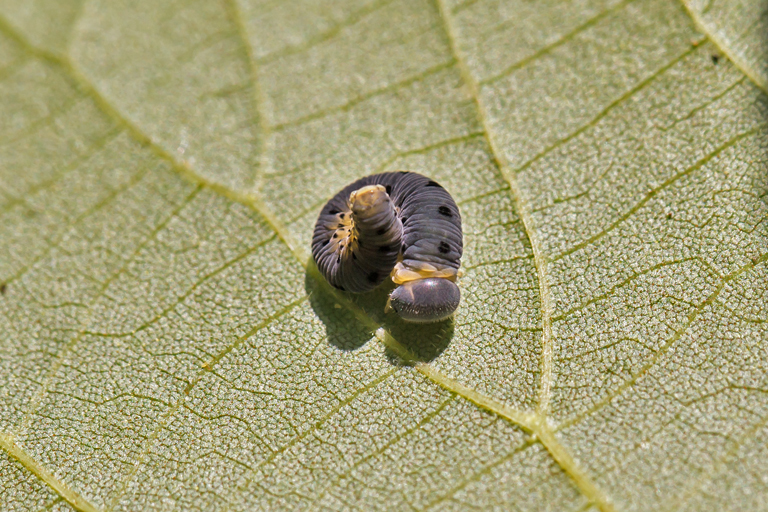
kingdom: Animalia
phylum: Arthropoda
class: Insecta
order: Hymenoptera
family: Tenthredinidae
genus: Macrophya
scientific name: Macrophya
